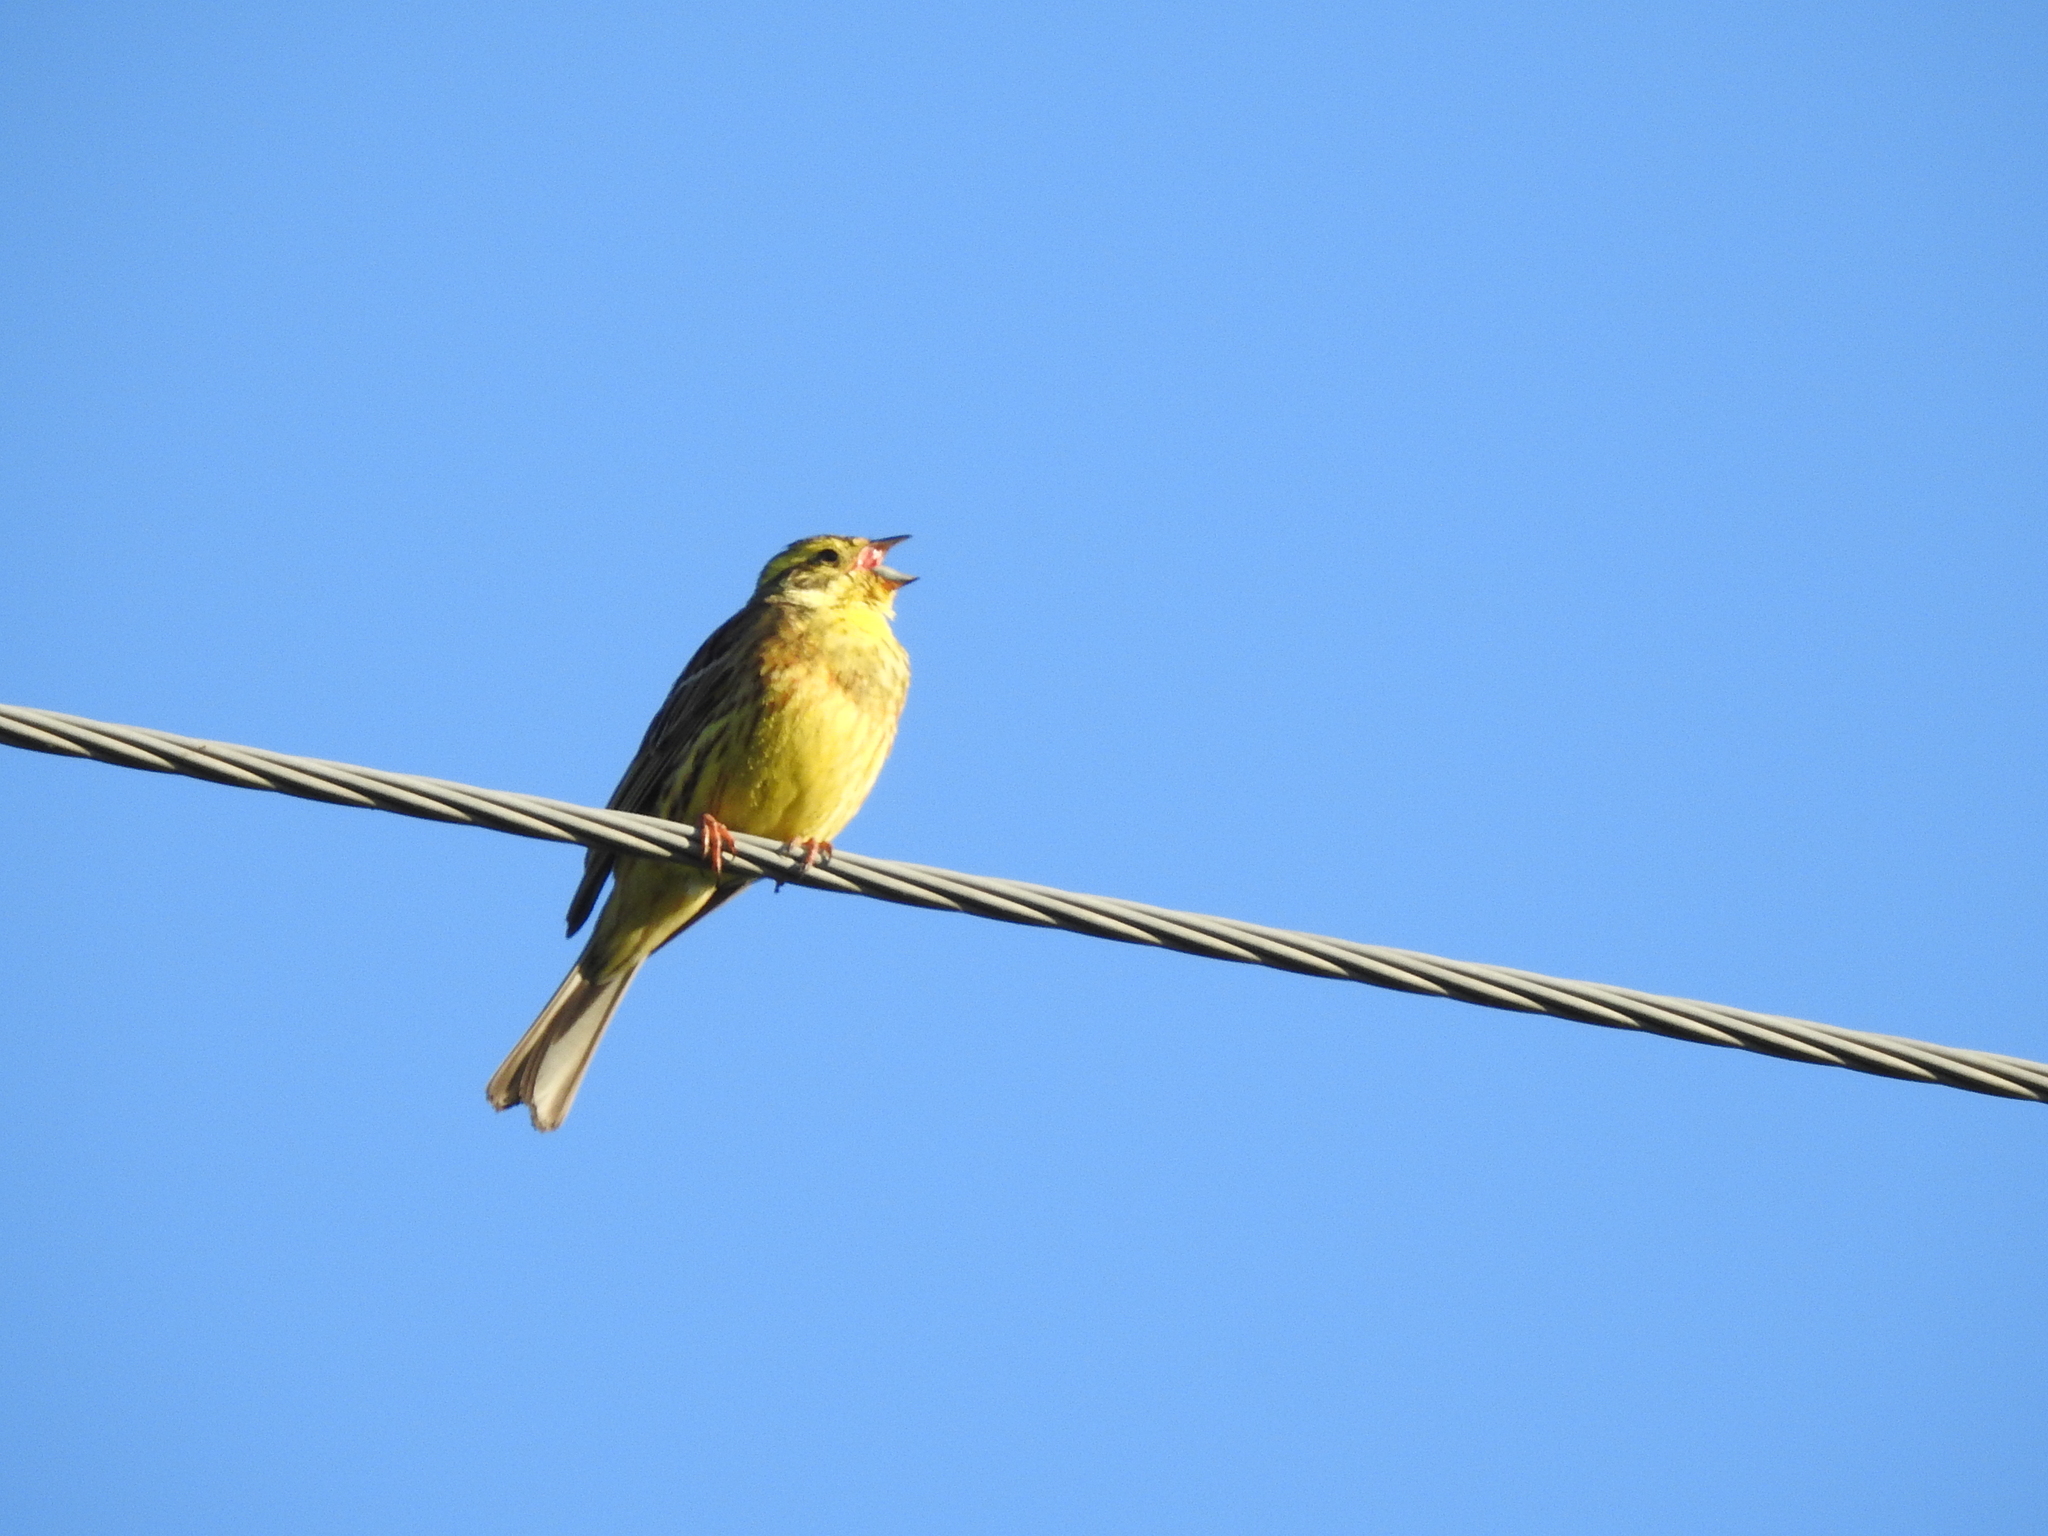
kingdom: Animalia
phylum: Chordata
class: Aves
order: Passeriformes
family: Emberizidae
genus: Emberiza
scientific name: Emberiza citrinella
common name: Yellowhammer
